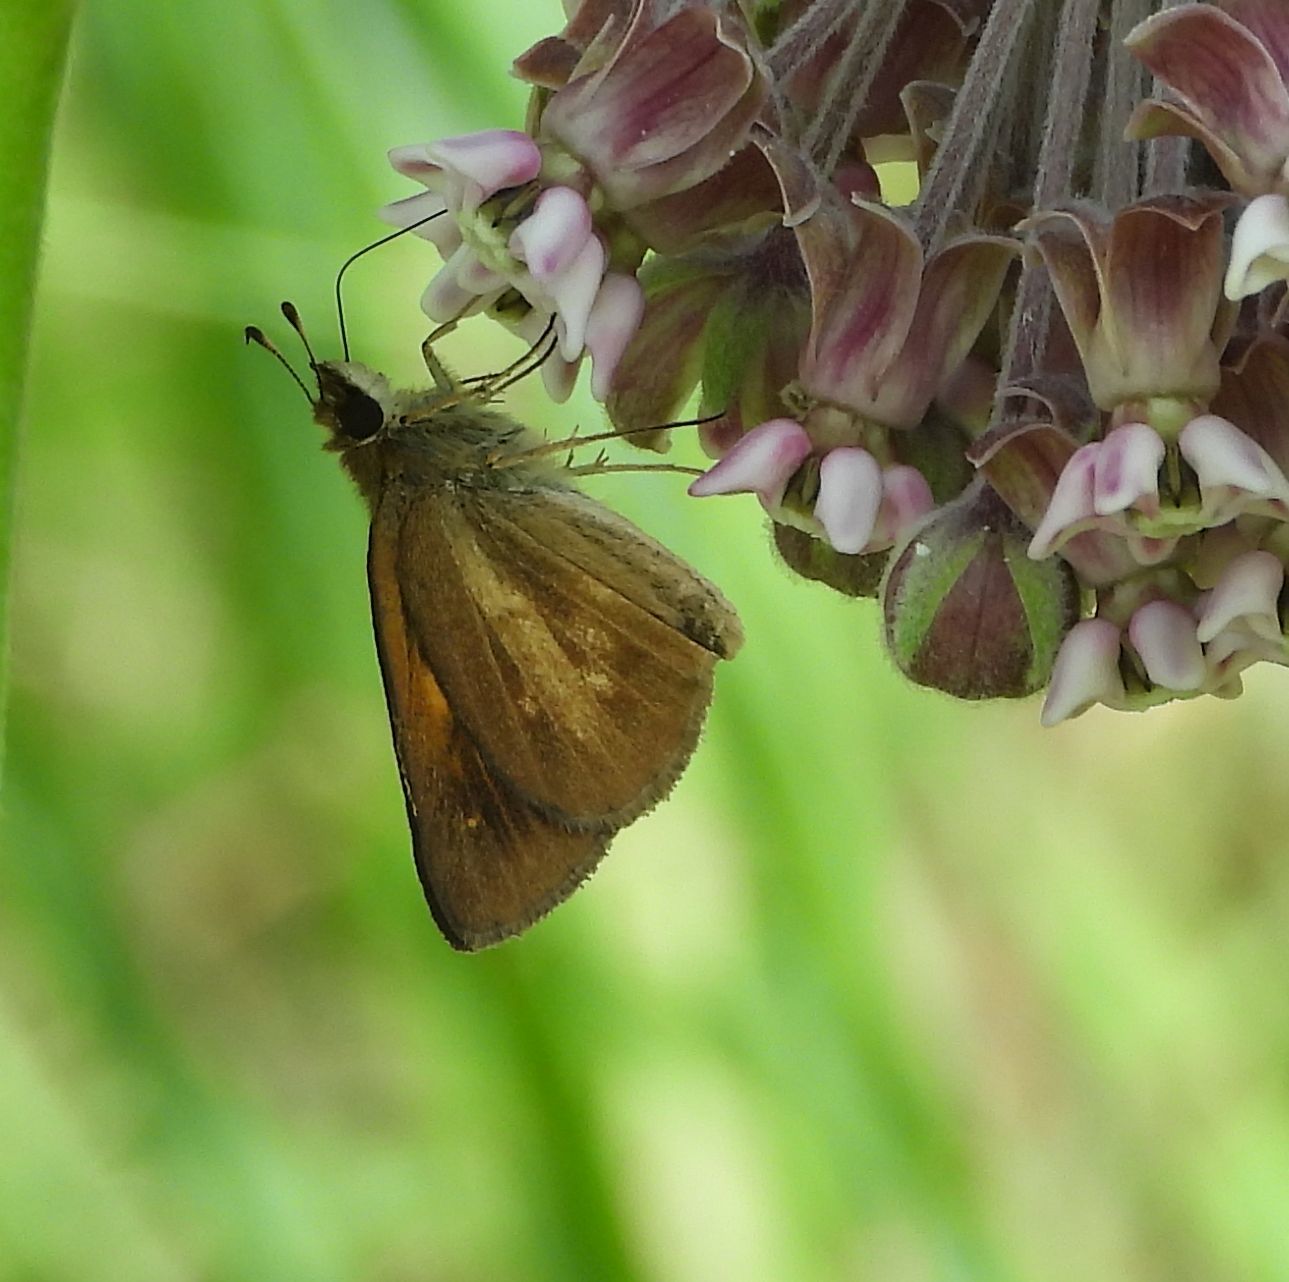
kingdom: Animalia
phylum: Arthropoda
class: Insecta
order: Lepidoptera
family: Hesperiidae
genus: Poanes
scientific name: Poanes viator
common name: Broad-winged skipper
